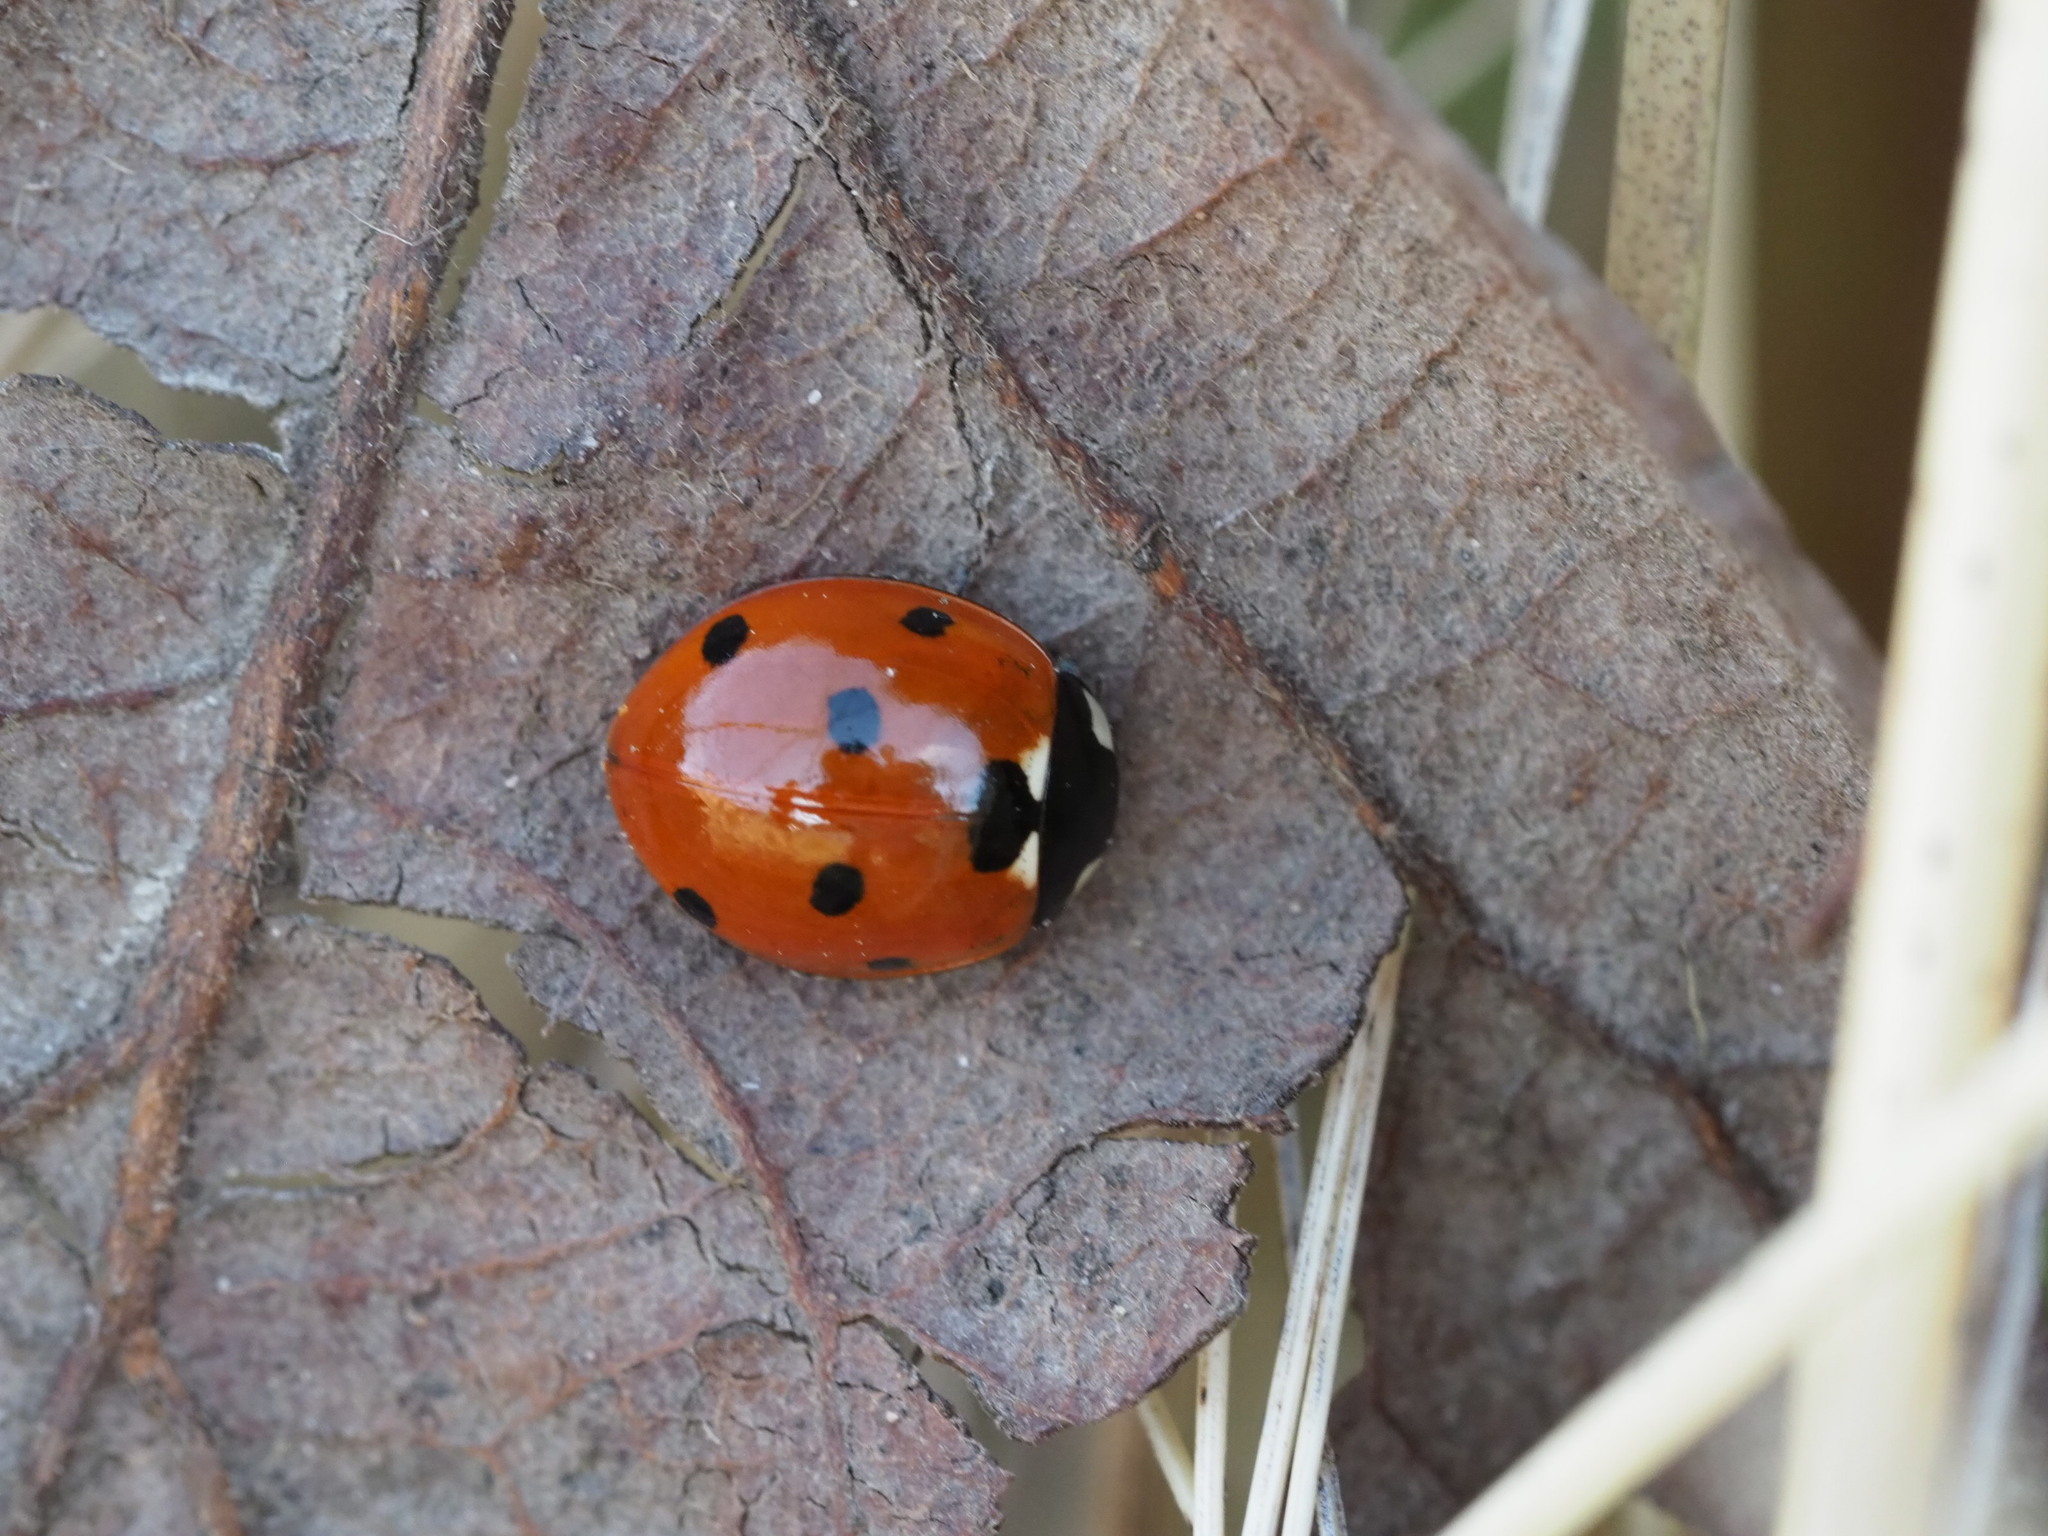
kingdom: Animalia
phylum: Arthropoda
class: Insecta
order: Coleoptera
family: Coccinellidae
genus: Coccinella
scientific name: Coccinella septempunctata
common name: Sevenspotted lady beetle
